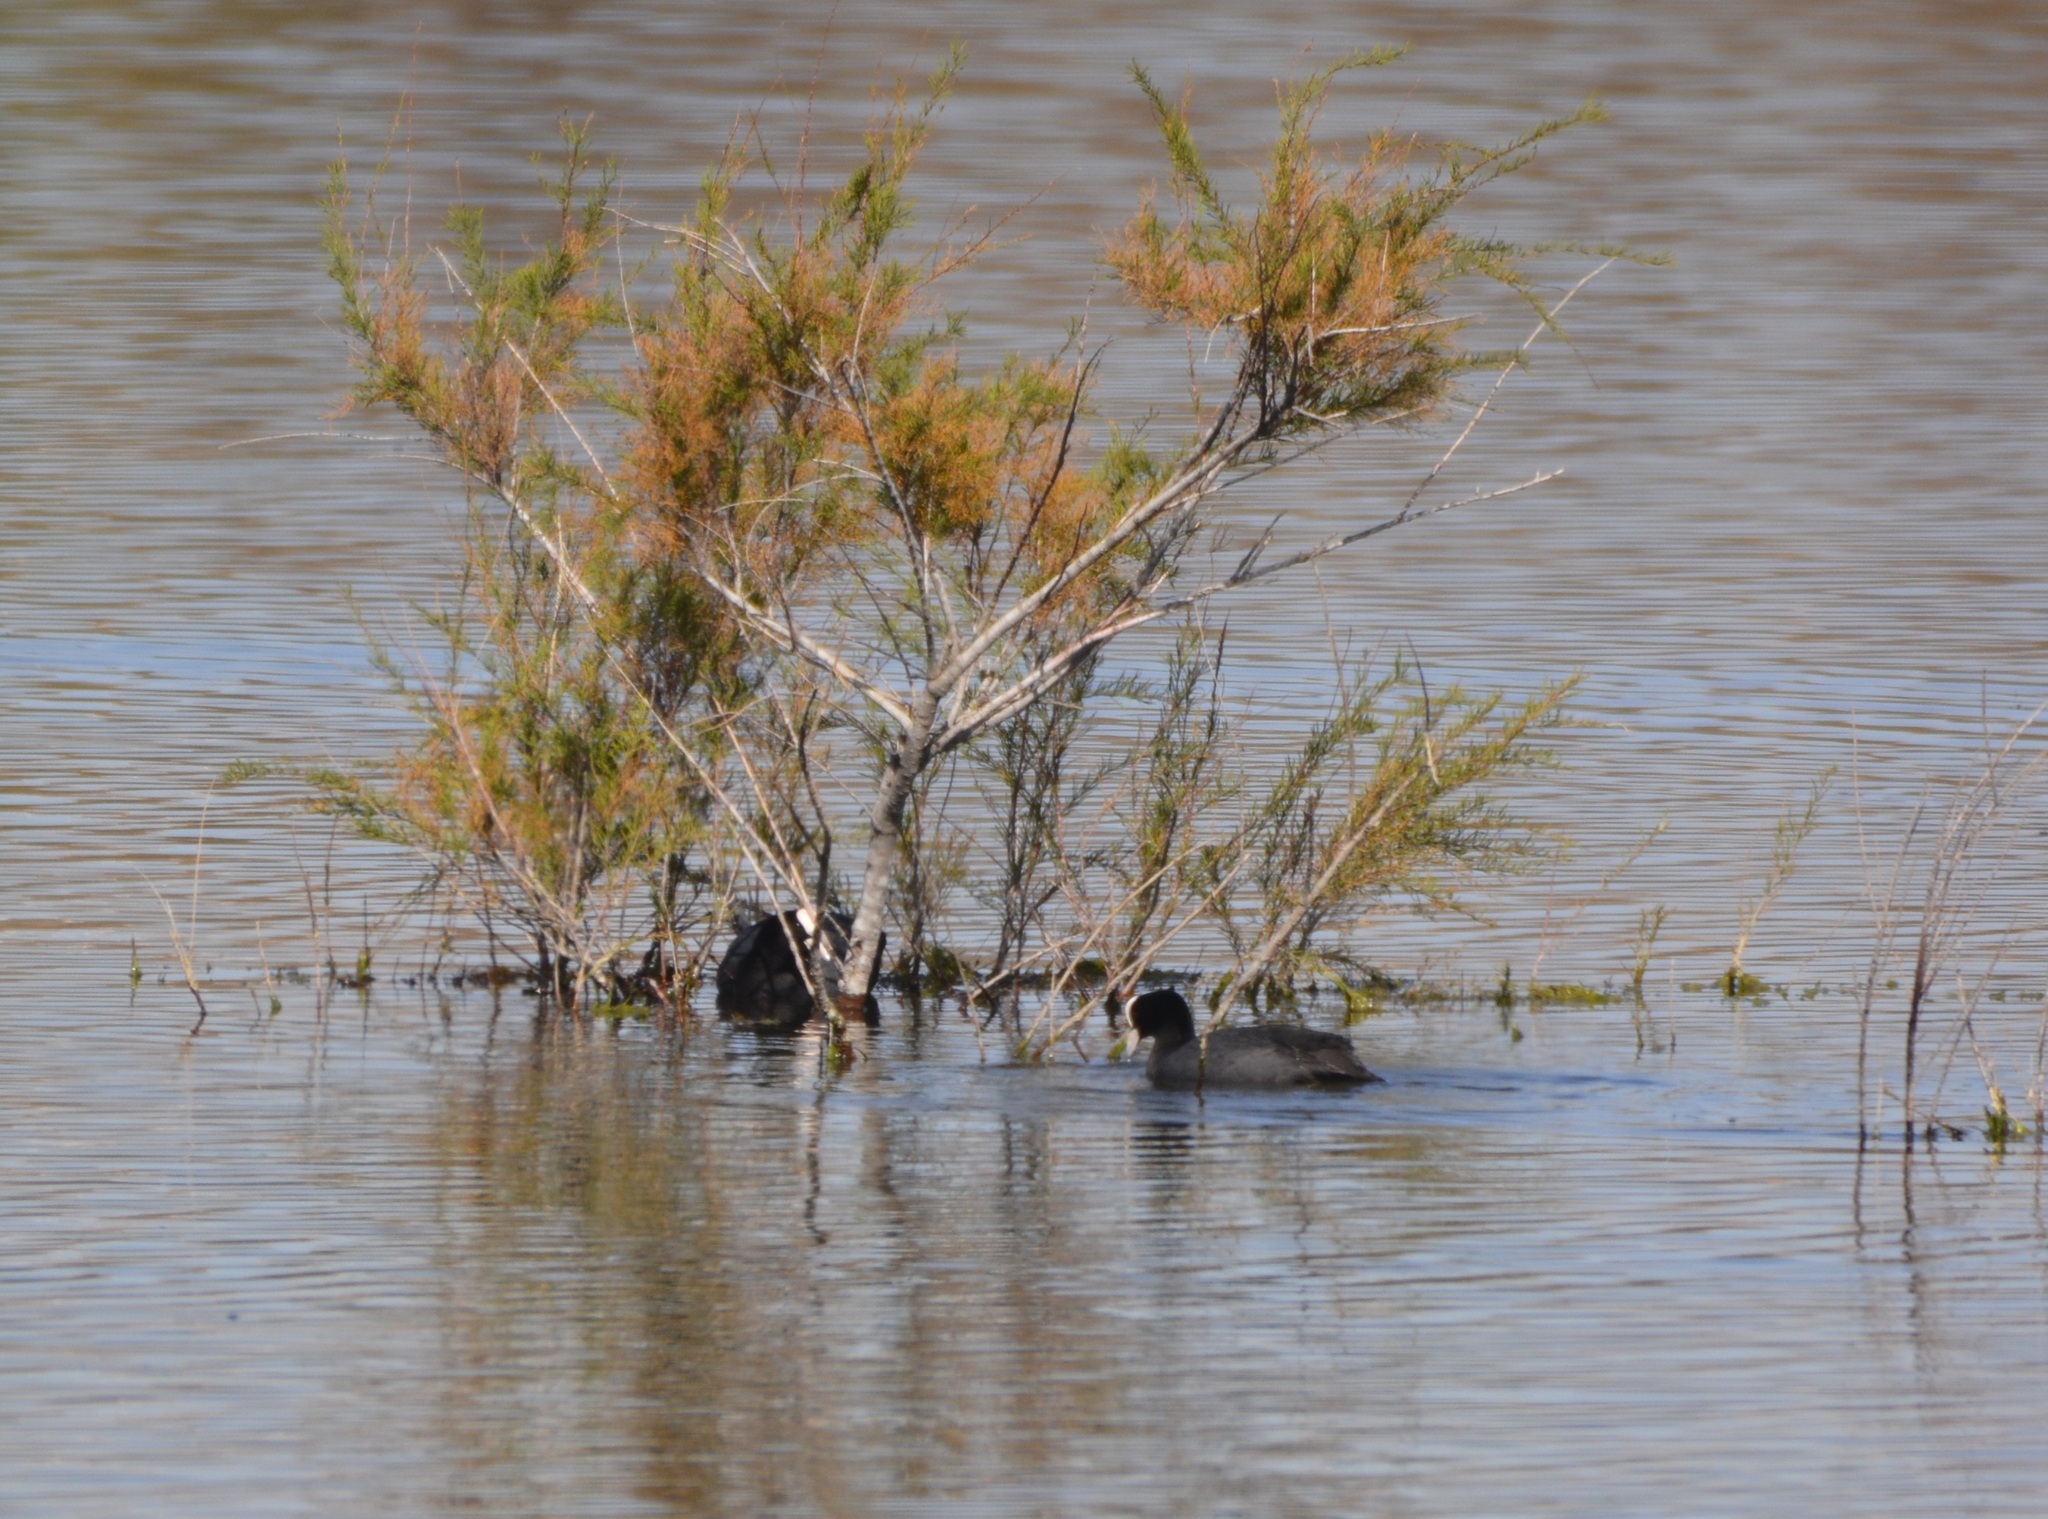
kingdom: Animalia
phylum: Chordata
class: Aves
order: Gruiformes
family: Rallidae
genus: Fulica
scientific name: Fulica atra
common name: Eurasian coot
